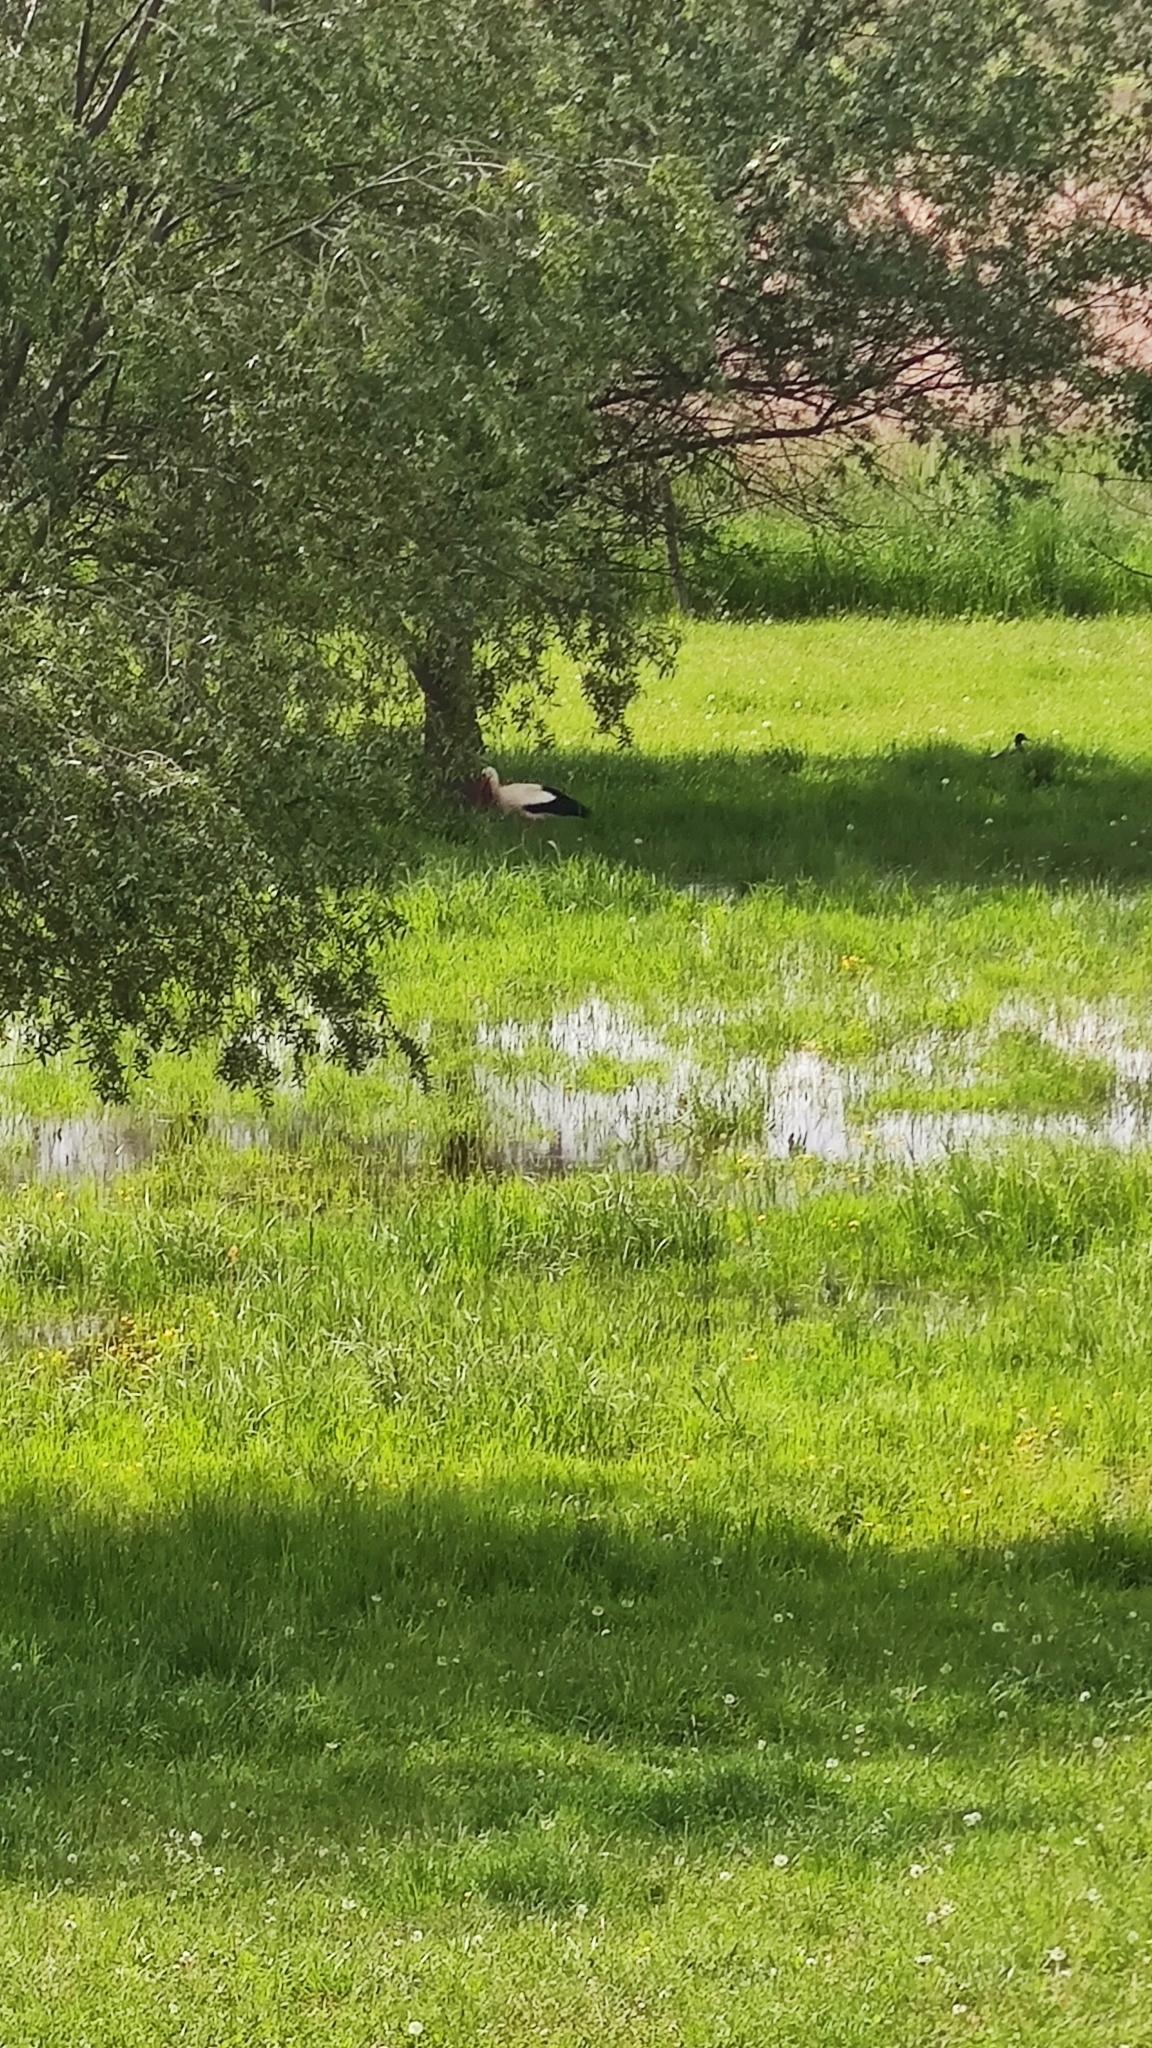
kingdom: Animalia
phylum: Chordata
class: Aves
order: Ciconiiformes
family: Ciconiidae
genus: Ciconia
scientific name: Ciconia ciconia
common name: White stork
